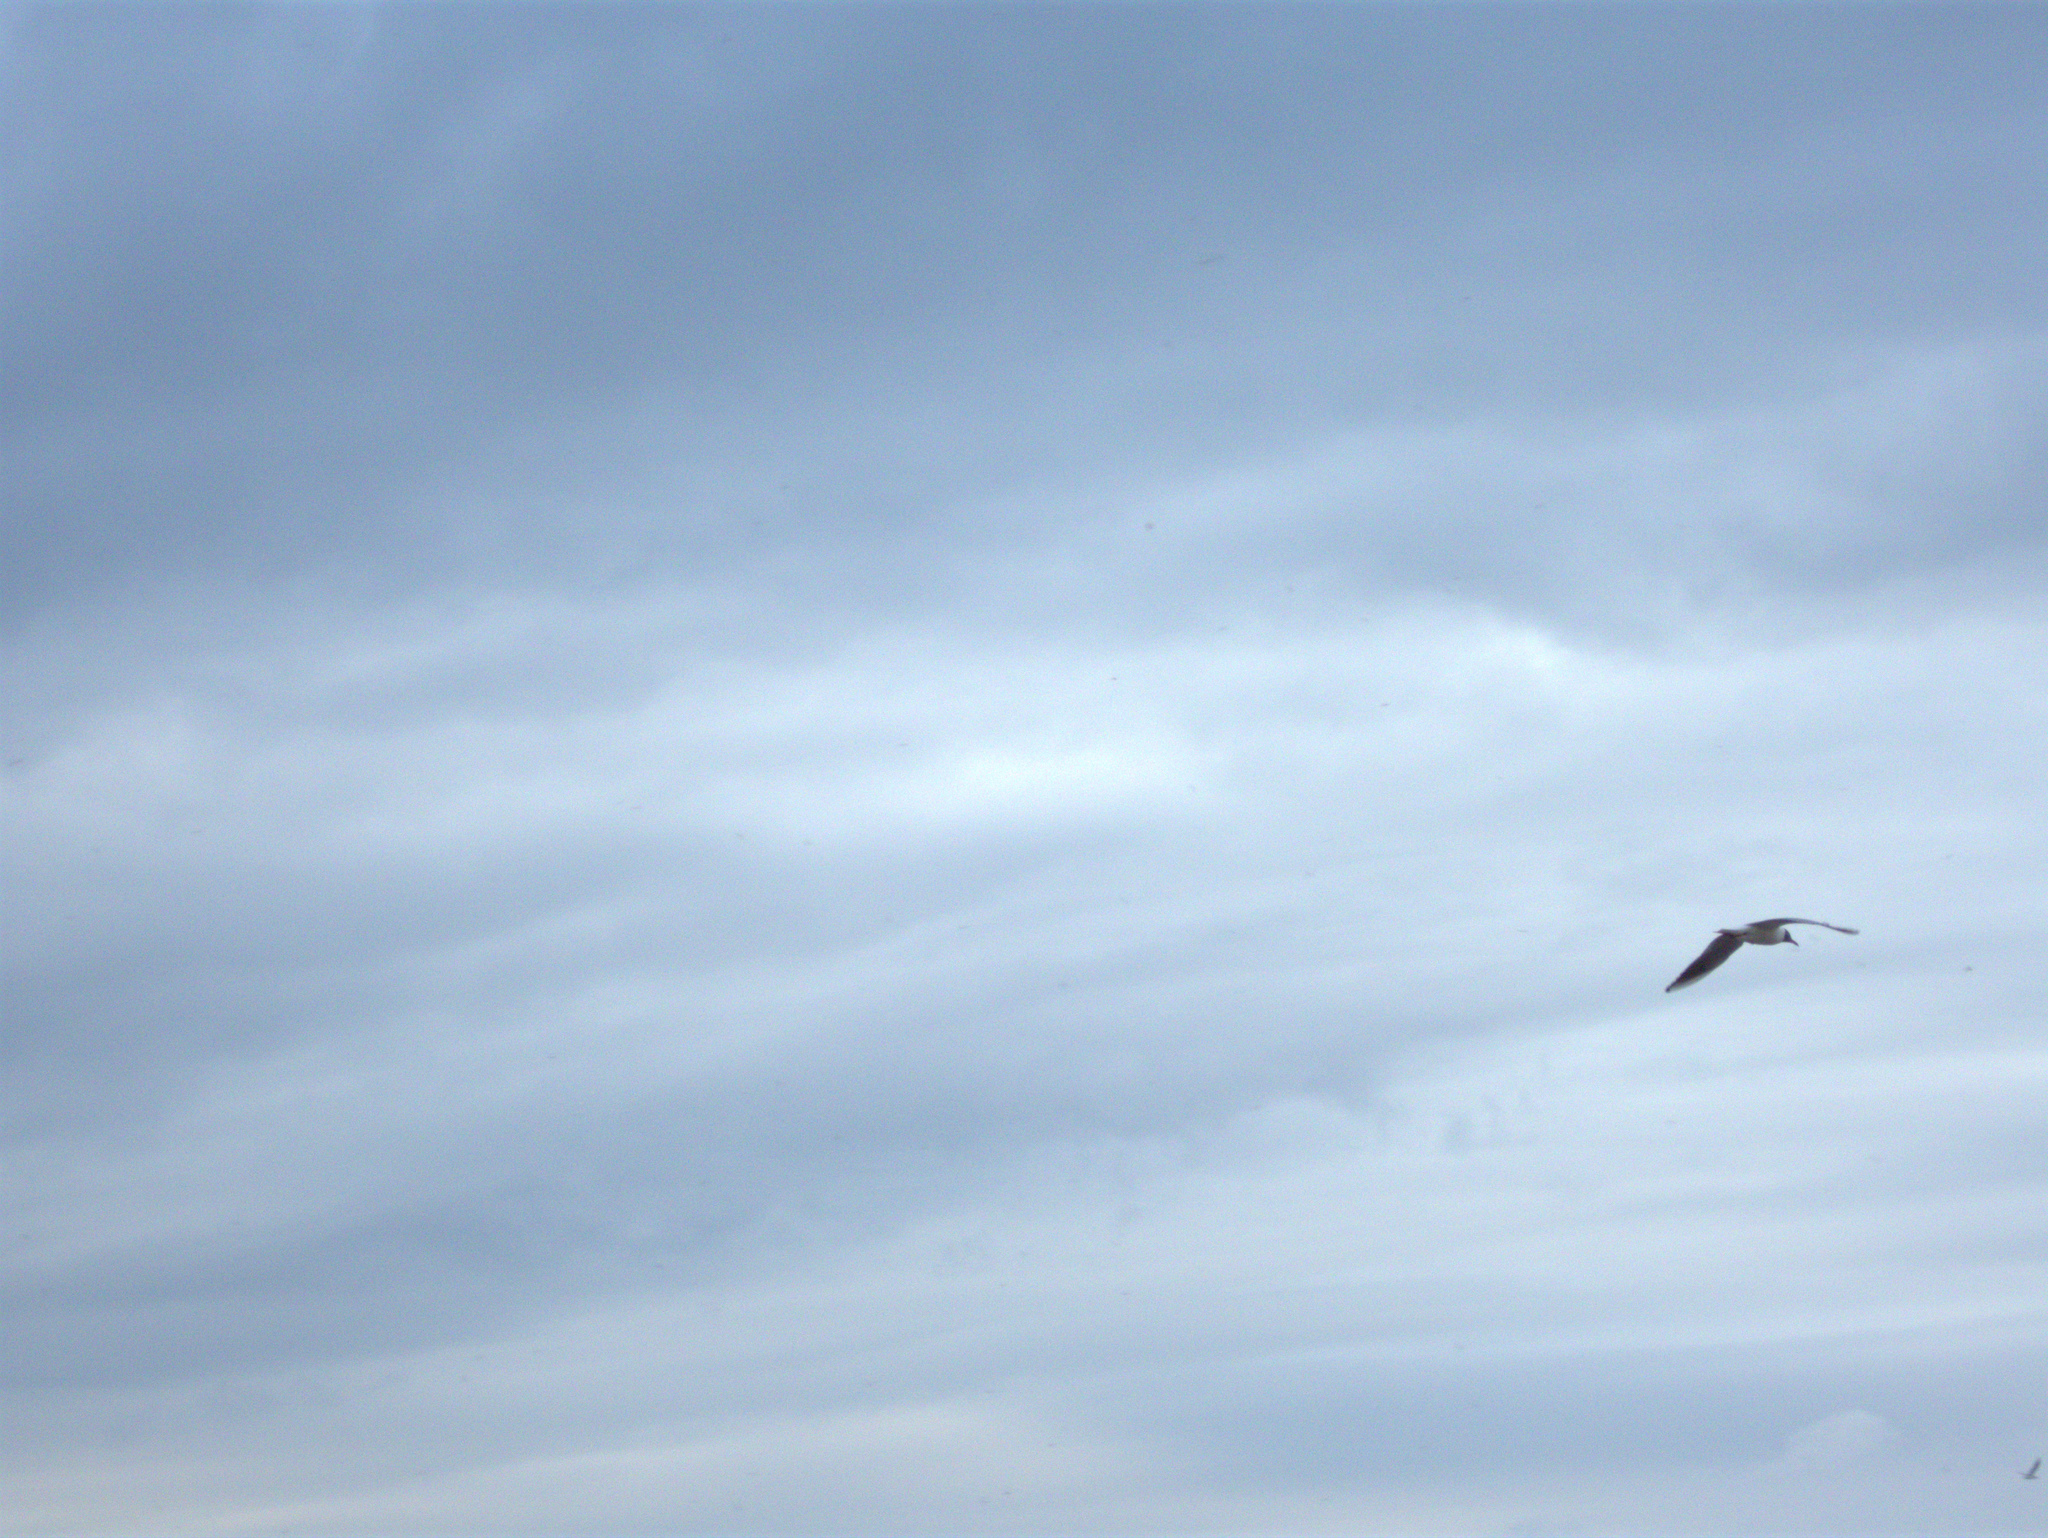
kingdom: Animalia
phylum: Chordata
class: Aves
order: Charadriiformes
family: Laridae
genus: Chroicocephalus
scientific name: Chroicocephalus ridibundus
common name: Black-headed gull
